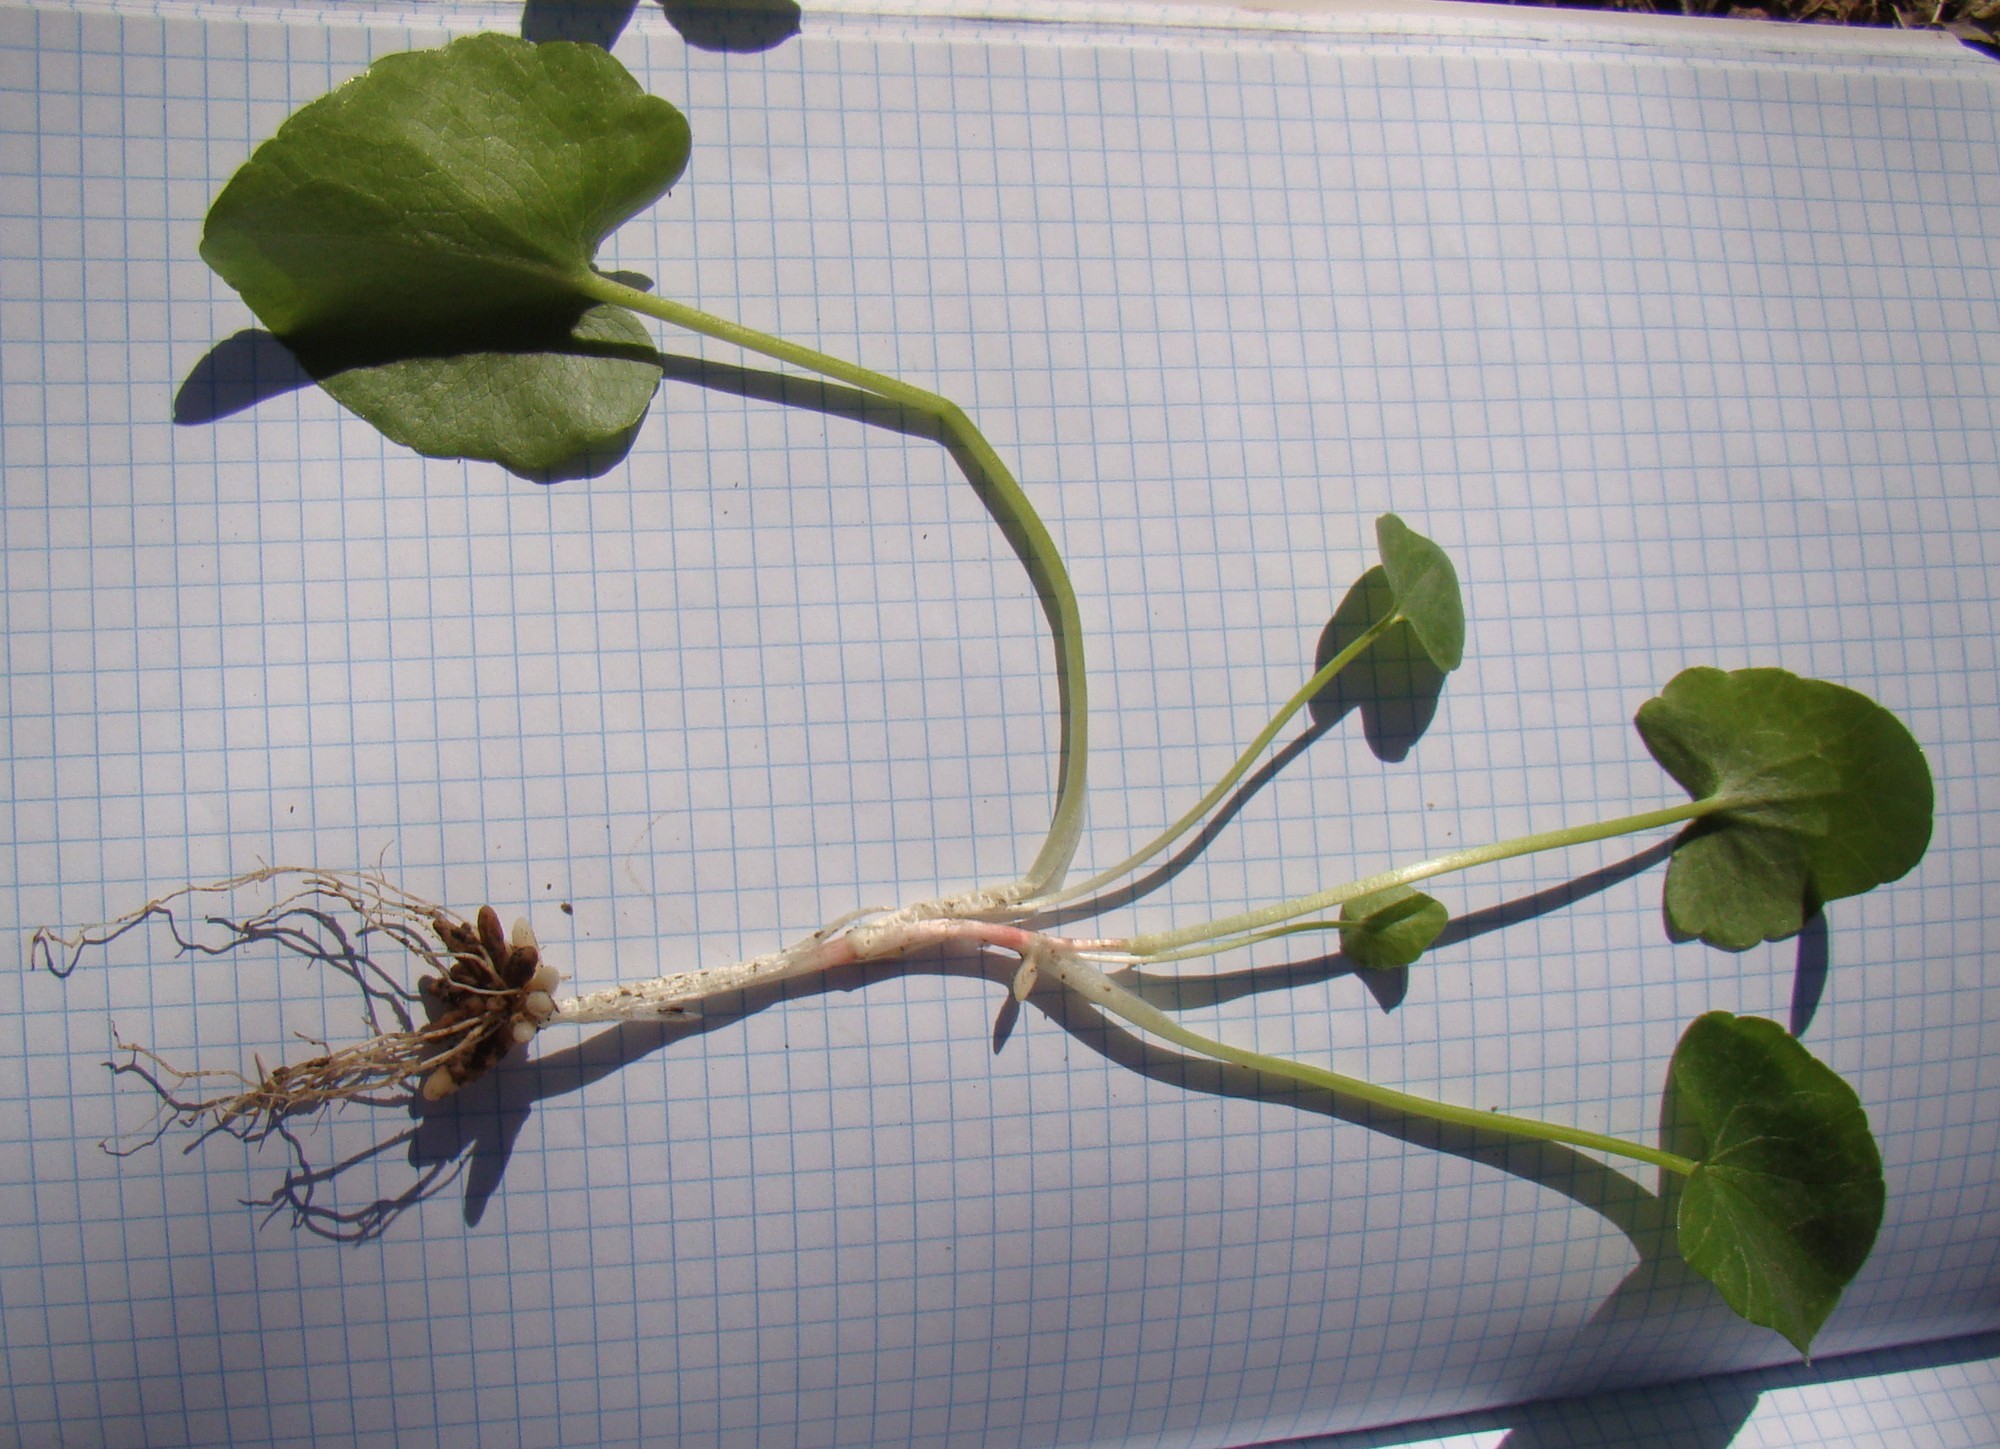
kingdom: Plantae
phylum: Tracheophyta
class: Magnoliopsida
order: Ranunculales
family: Ranunculaceae
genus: Ficaria
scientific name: Ficaria
